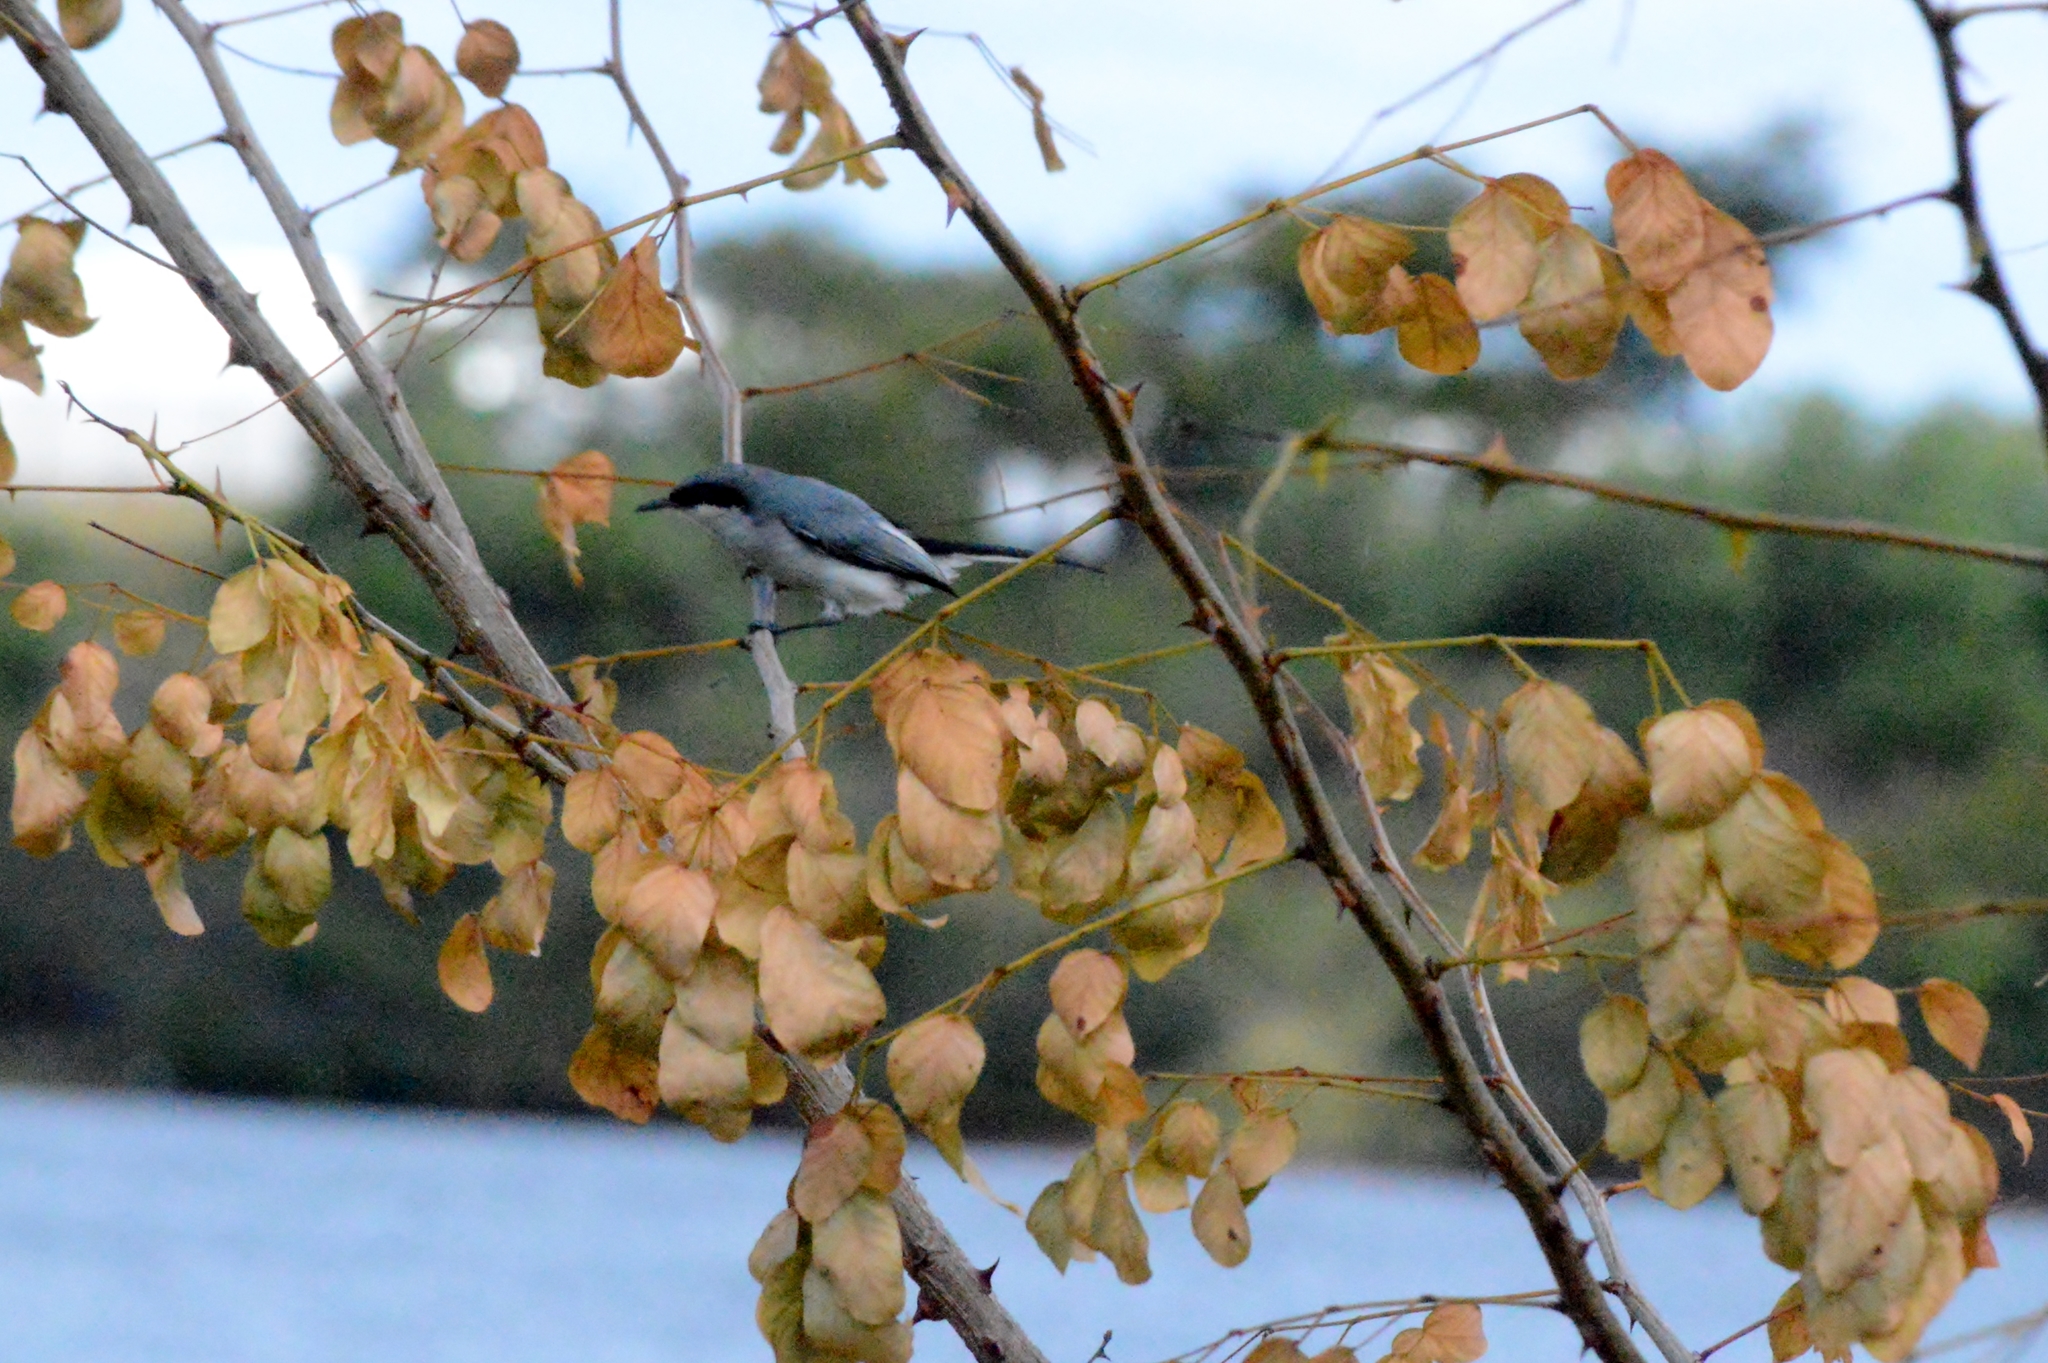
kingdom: Animalia
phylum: Chordata
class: Aves
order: Passeriformes
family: Polioptilidae
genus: Polioptila
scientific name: Polioptila dumicola
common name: Masked gnatcatcher
